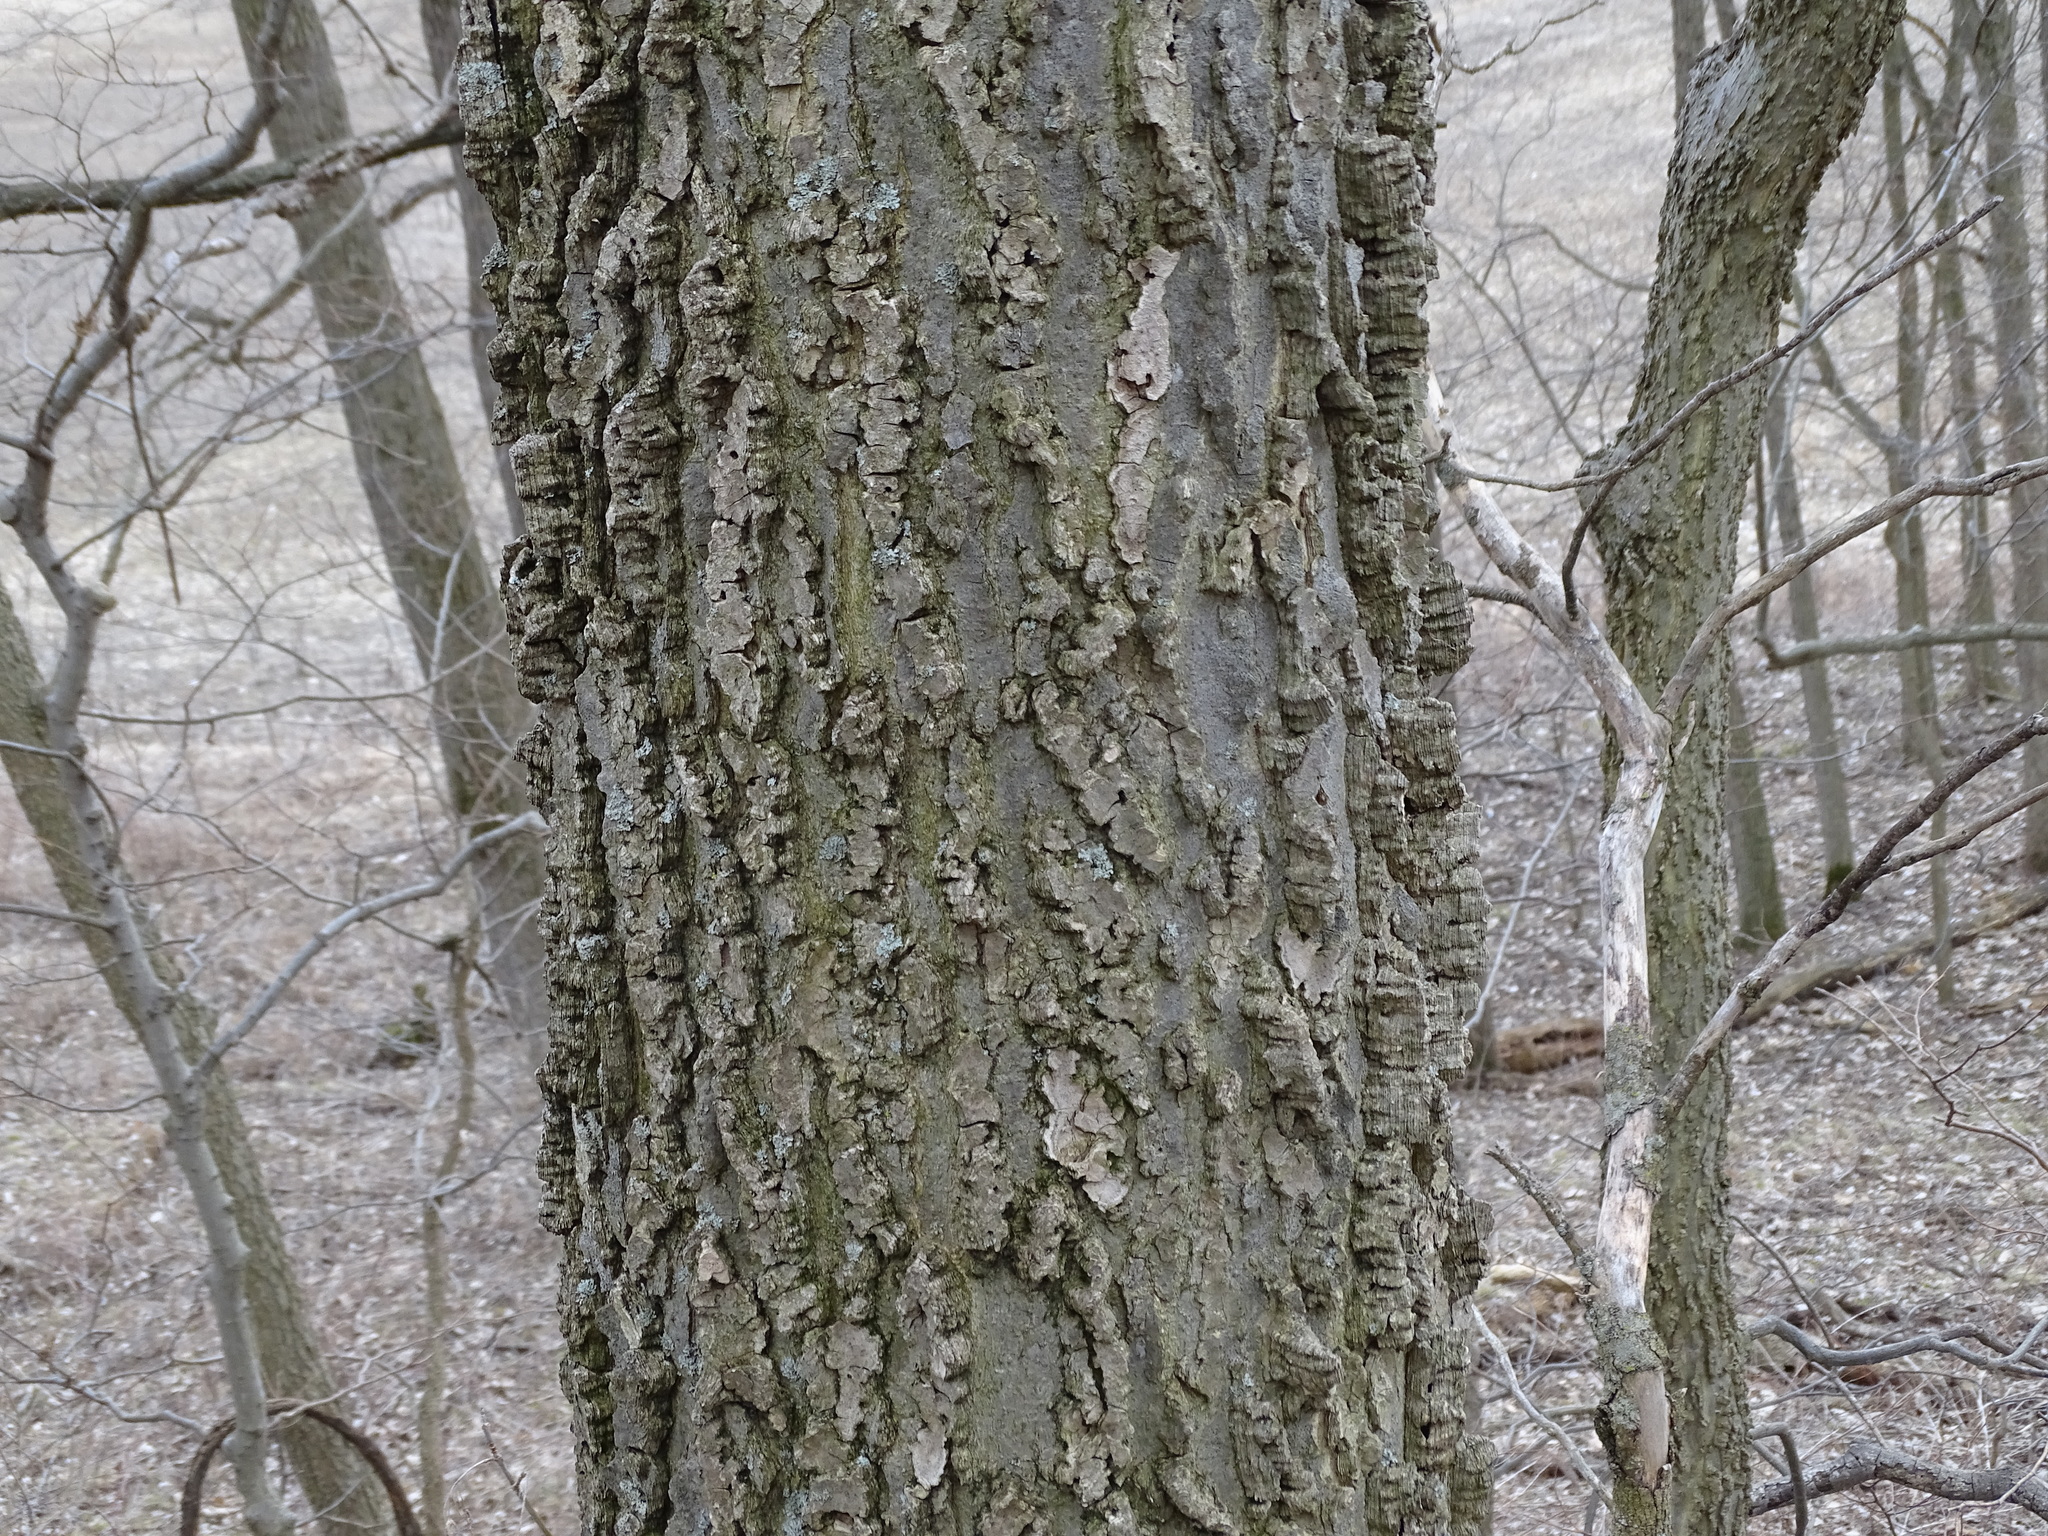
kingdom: Plantae
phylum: Tracheophyta
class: Magnoliopsida
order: Rosales
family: Cannabaceae
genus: Celtis
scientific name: Celtis occidentalis
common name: Common hackberry
